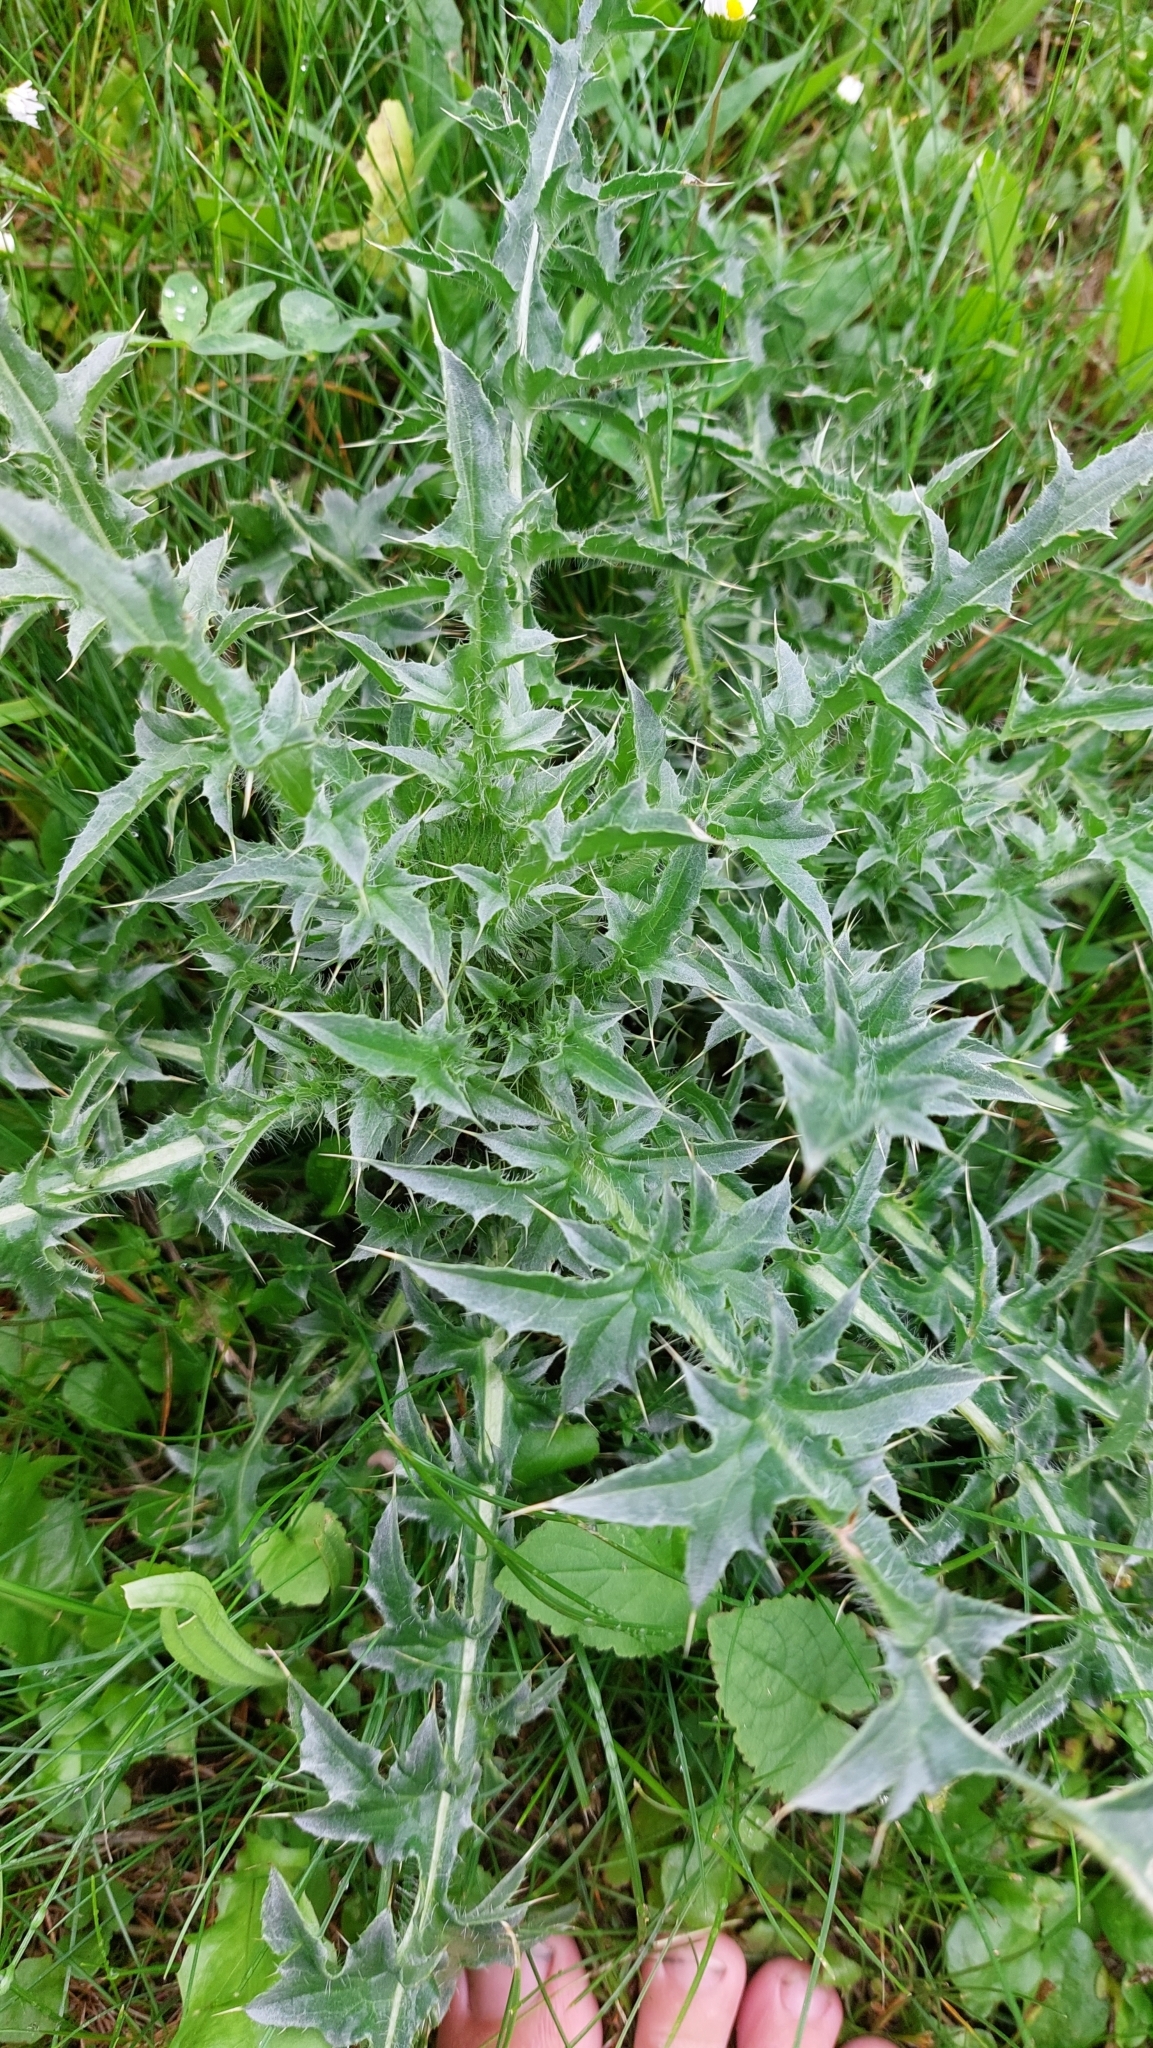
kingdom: Plantae
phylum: Tracheophyta
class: Magnoliopsida
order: Asterales
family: Asteraceae
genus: Carduus
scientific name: Carduus acanthoides
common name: Plumeless thistle
